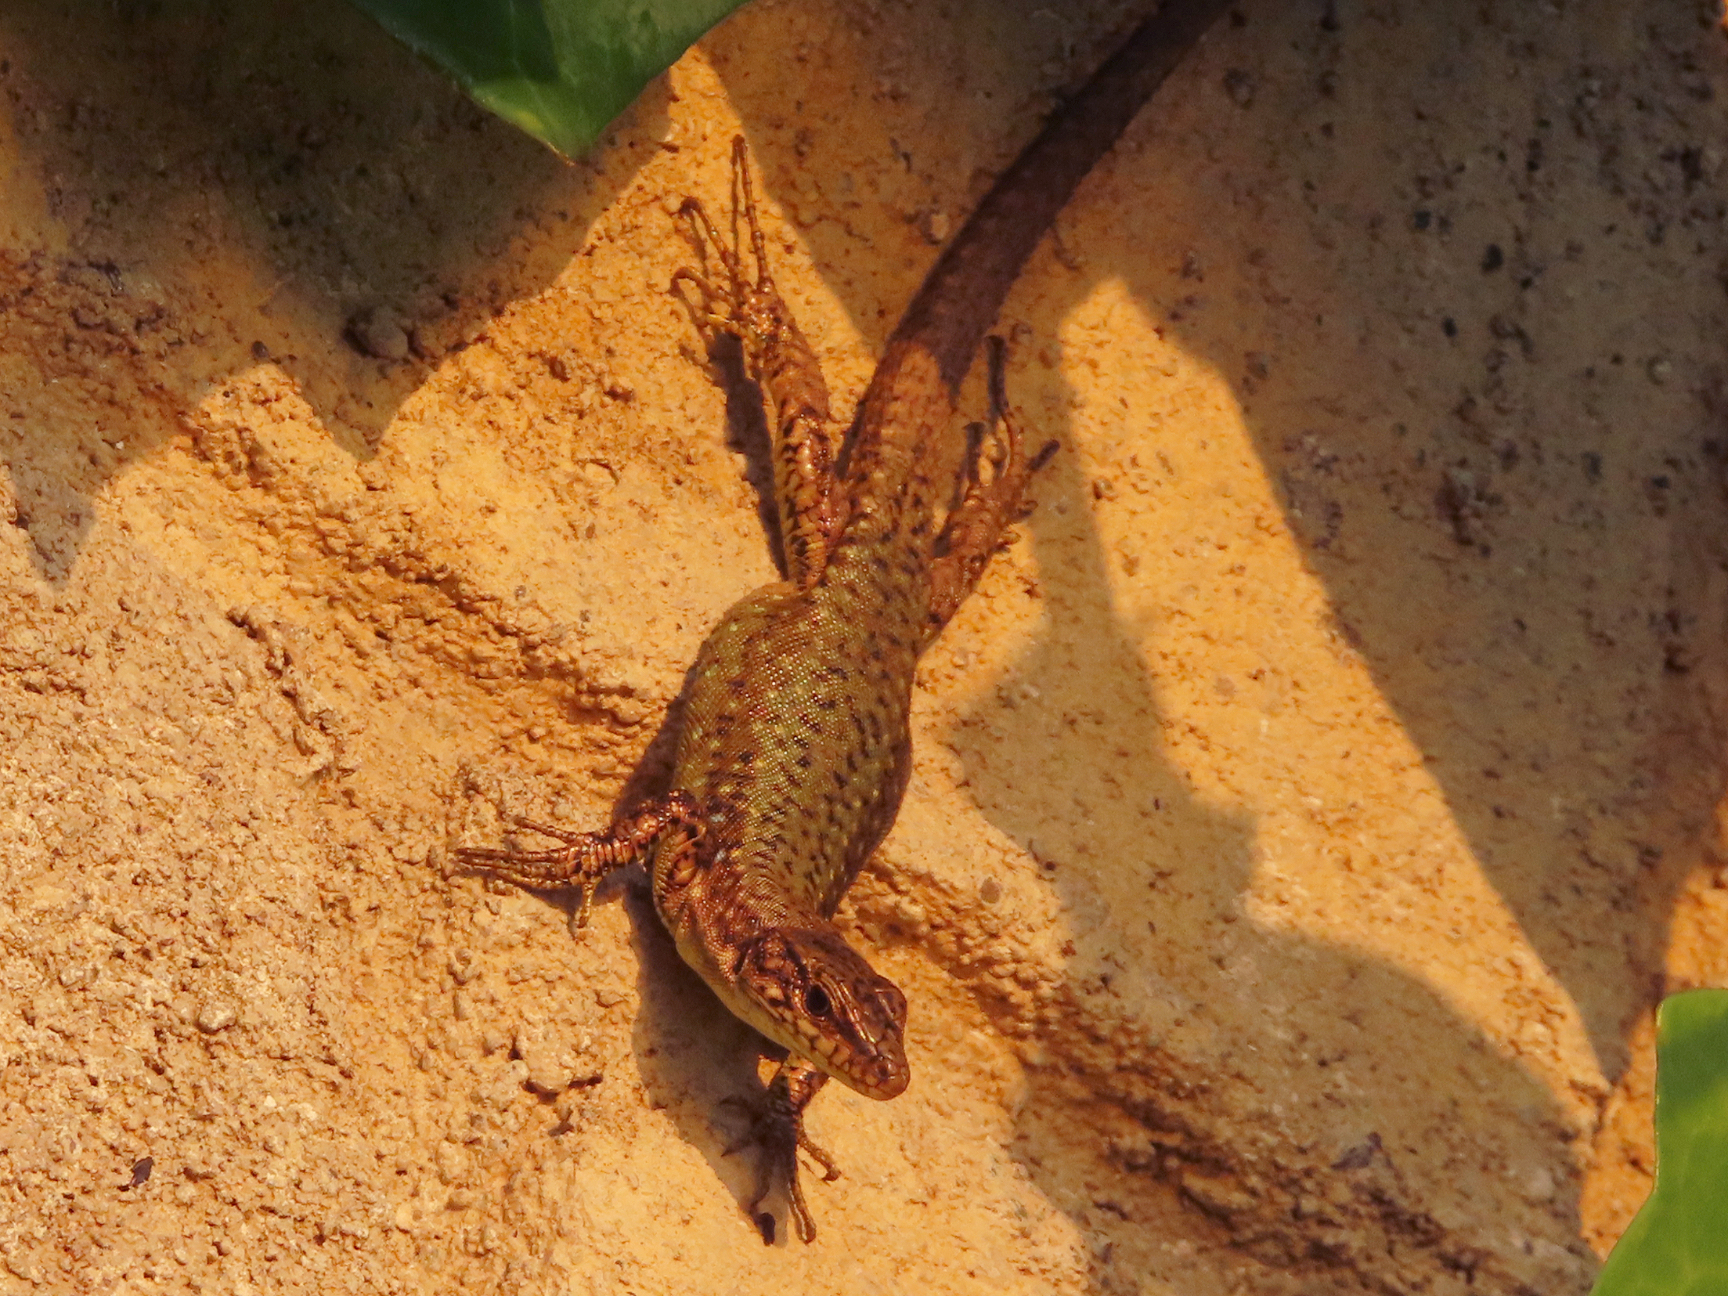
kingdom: Animalia
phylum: Chordata
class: Squamata
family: Lacertidae
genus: Darevskia
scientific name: Darevskia bithynica
